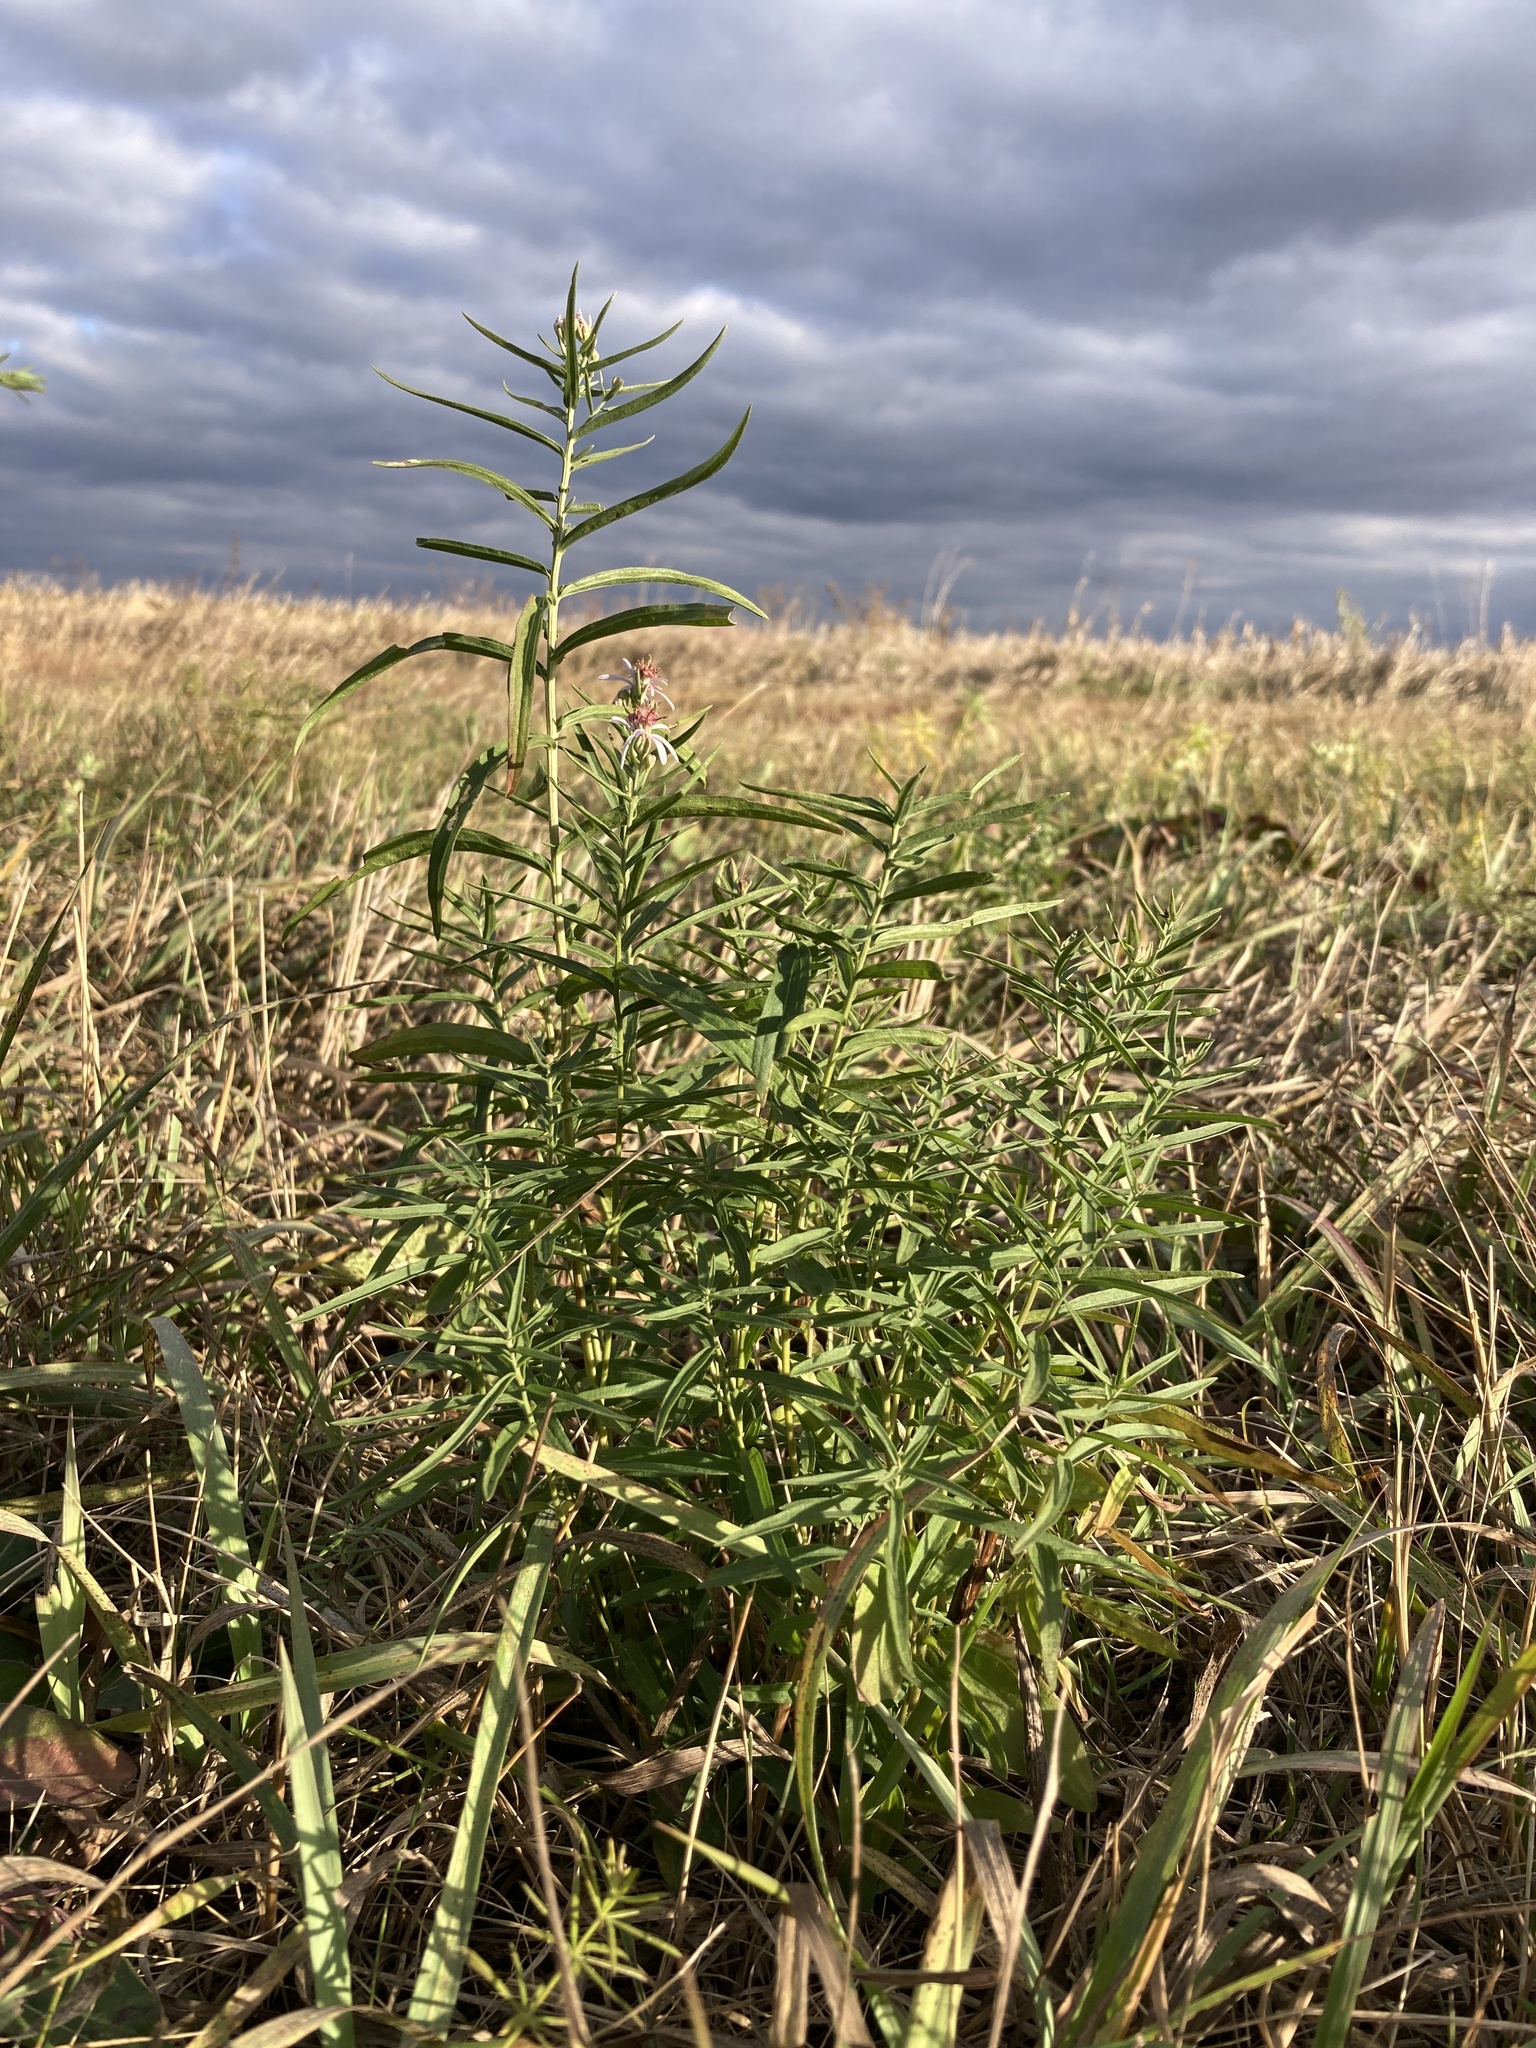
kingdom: Plantae
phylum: Tracheophyta
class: Magnoliopsida
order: Asterales
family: Asteraceae
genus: Galatella
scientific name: Galatella sedifolia
